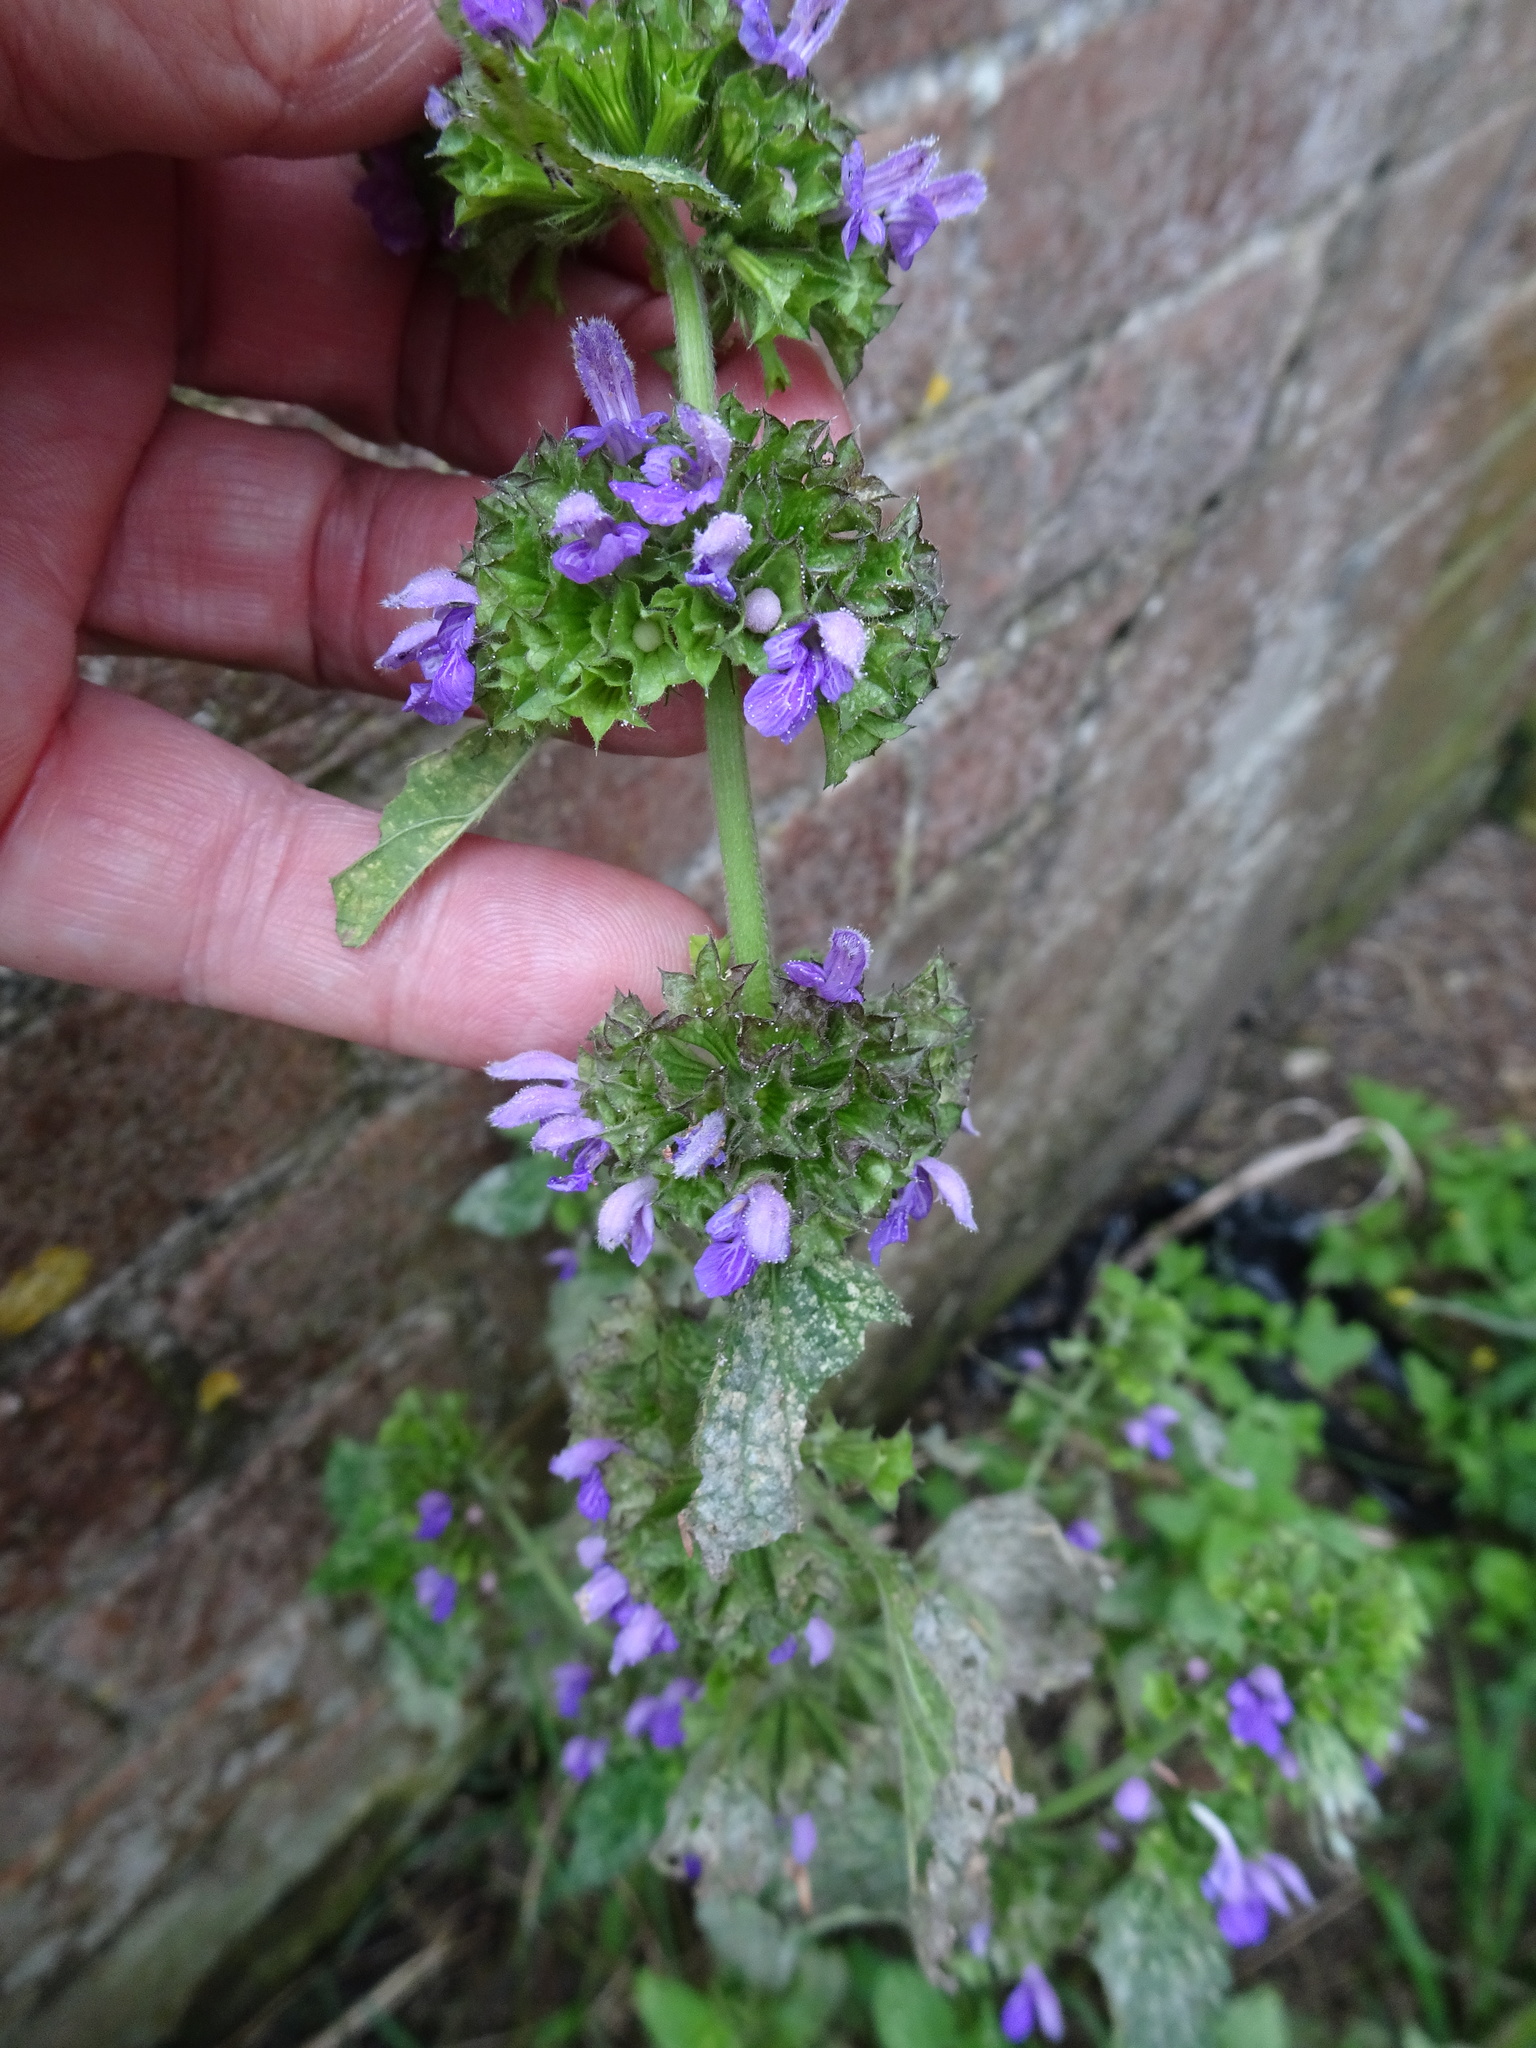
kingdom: Plantae
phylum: Tracheophyta
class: Magnoliopsida
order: Lamiales
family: Lamiaceae
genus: Ballota
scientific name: Ballota nigra
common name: Black horehound
